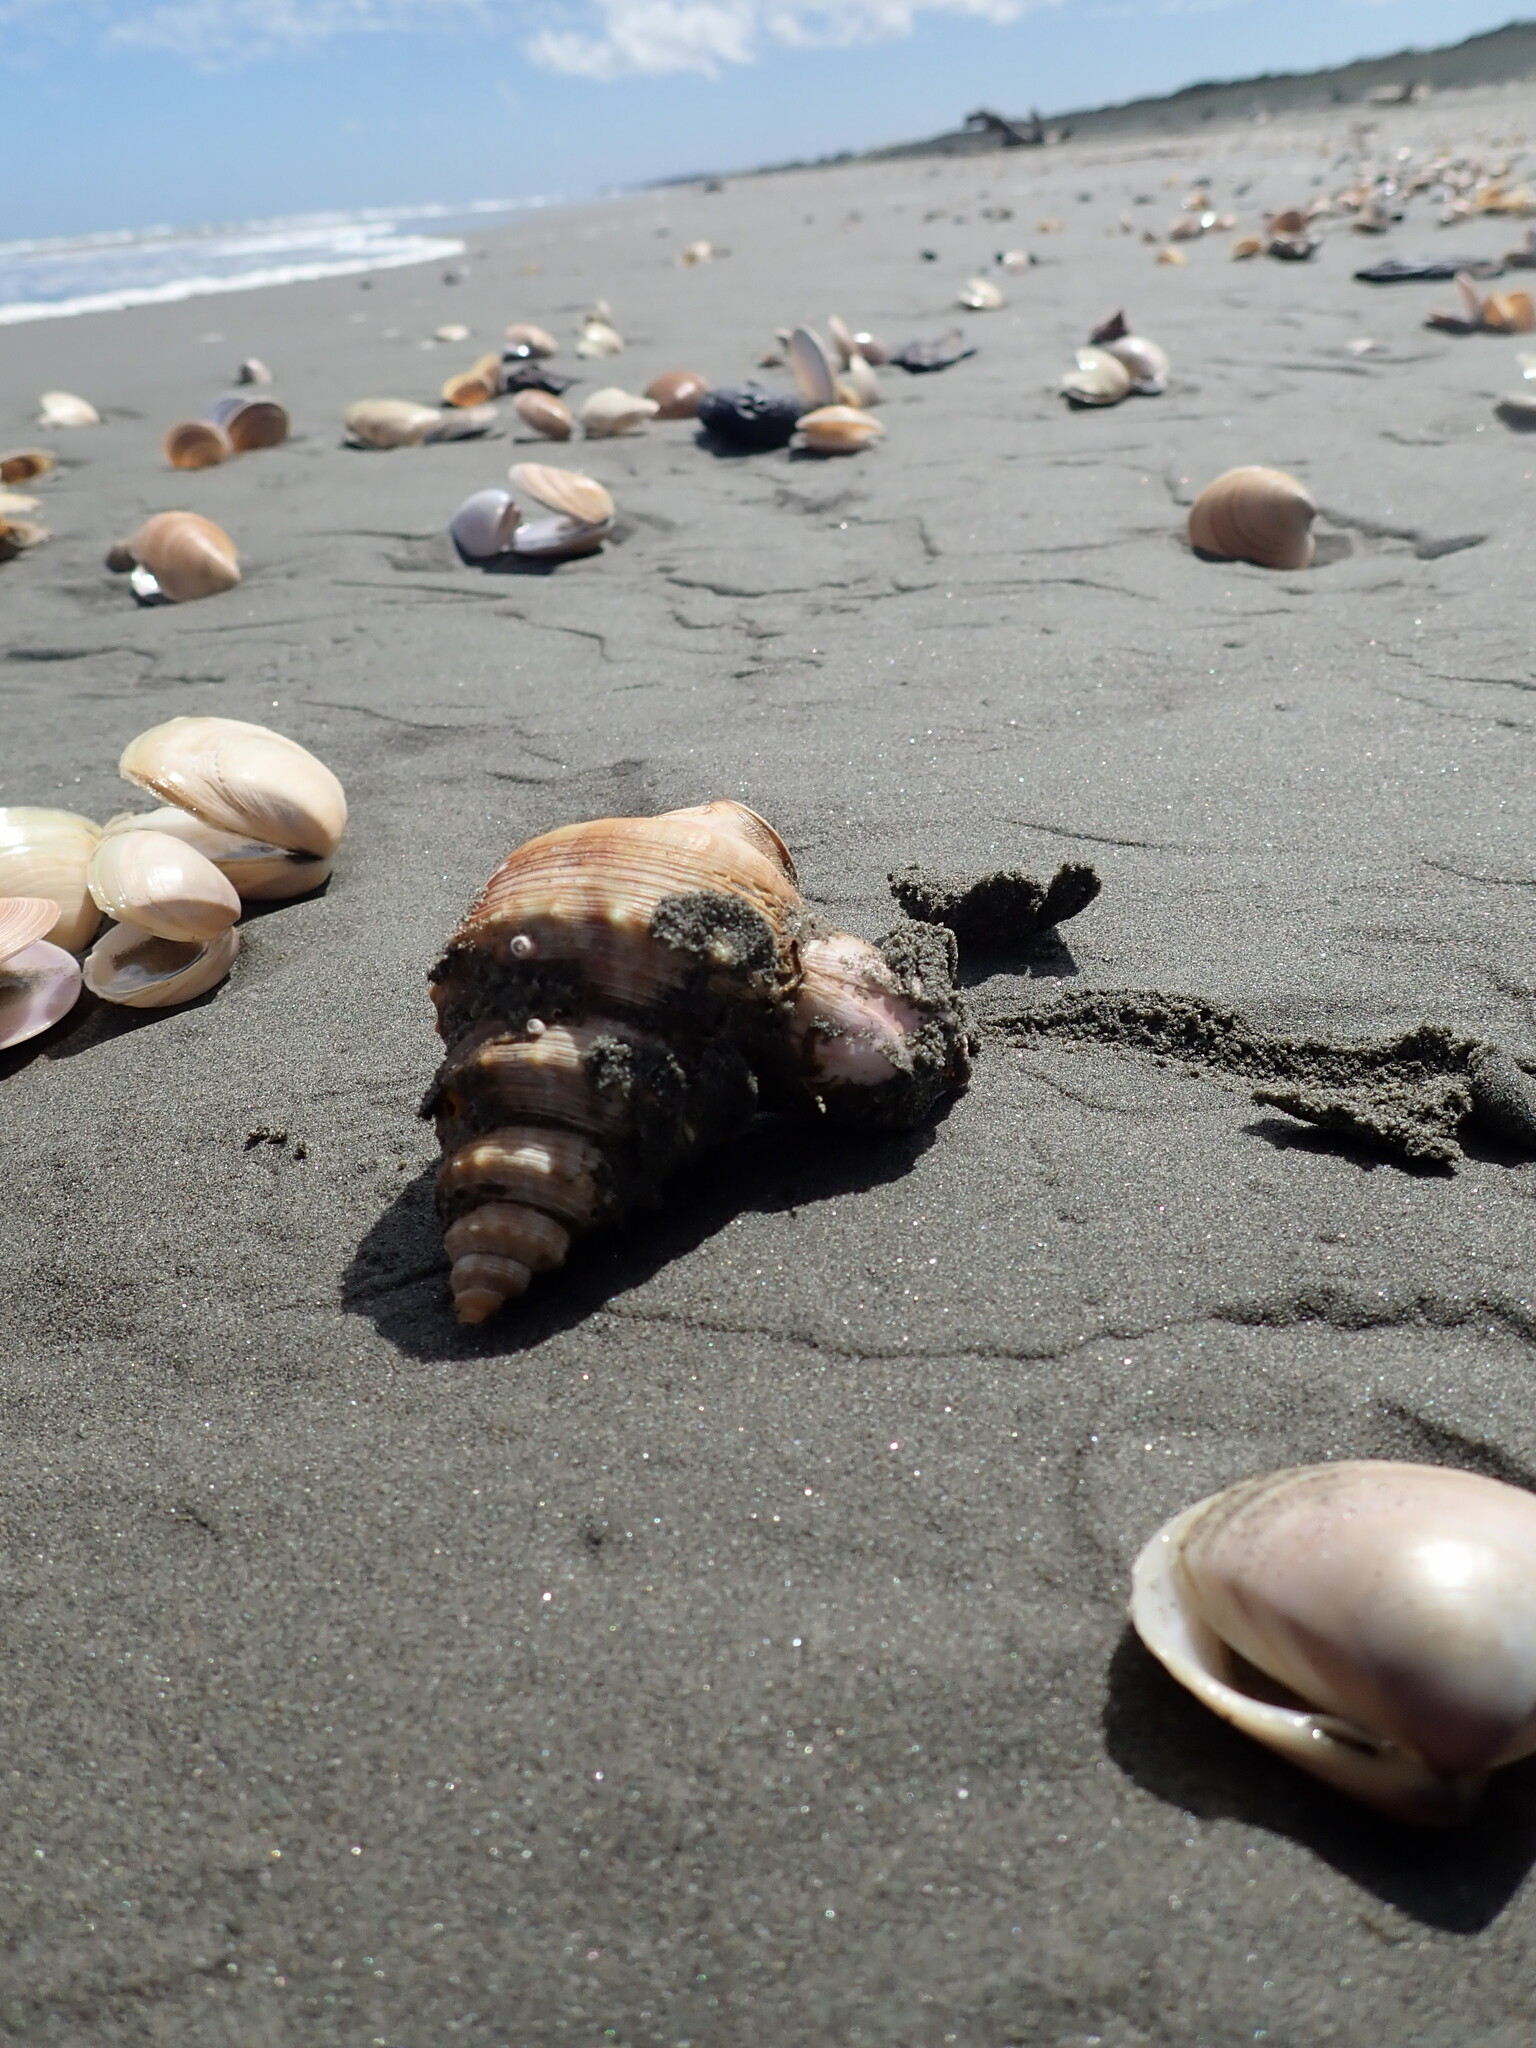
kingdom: Animalia
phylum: Arthropoda
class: Maxillopoda
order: Sessilia
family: Balanidae
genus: Notomegabalanus
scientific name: Notomegabalanus decorus
